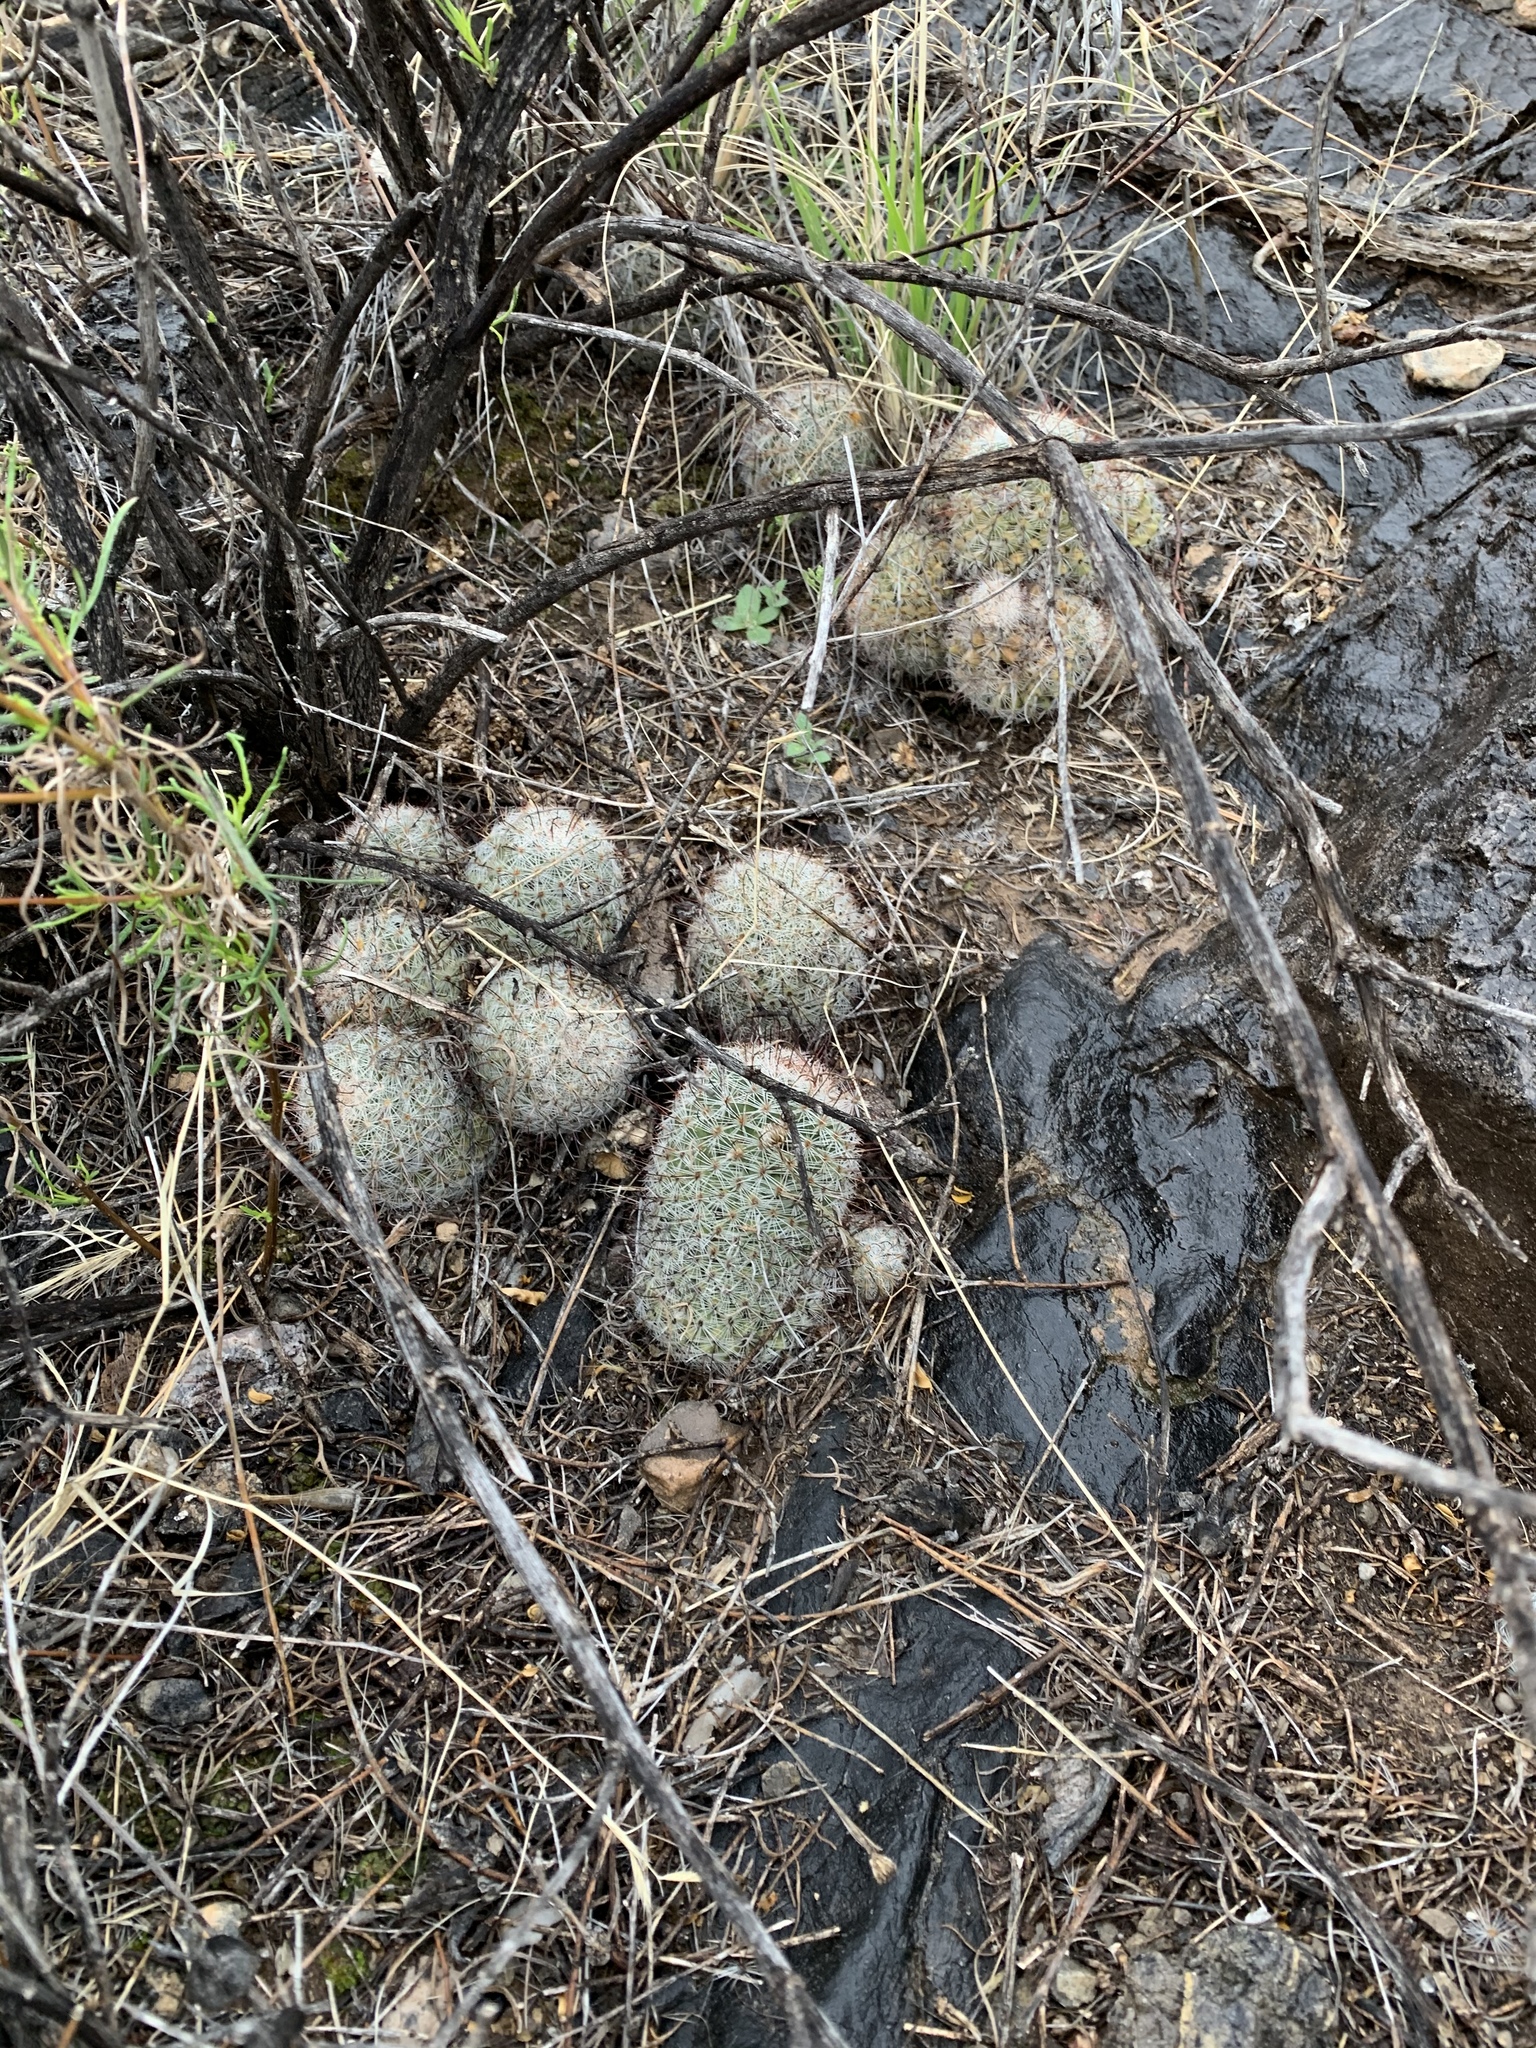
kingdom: Plantae
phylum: Tracheophyta
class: Magnoliopsida
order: Caryophyllales
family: Cactaceae
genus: Cochemiea
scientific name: Cochemiea grahamii
